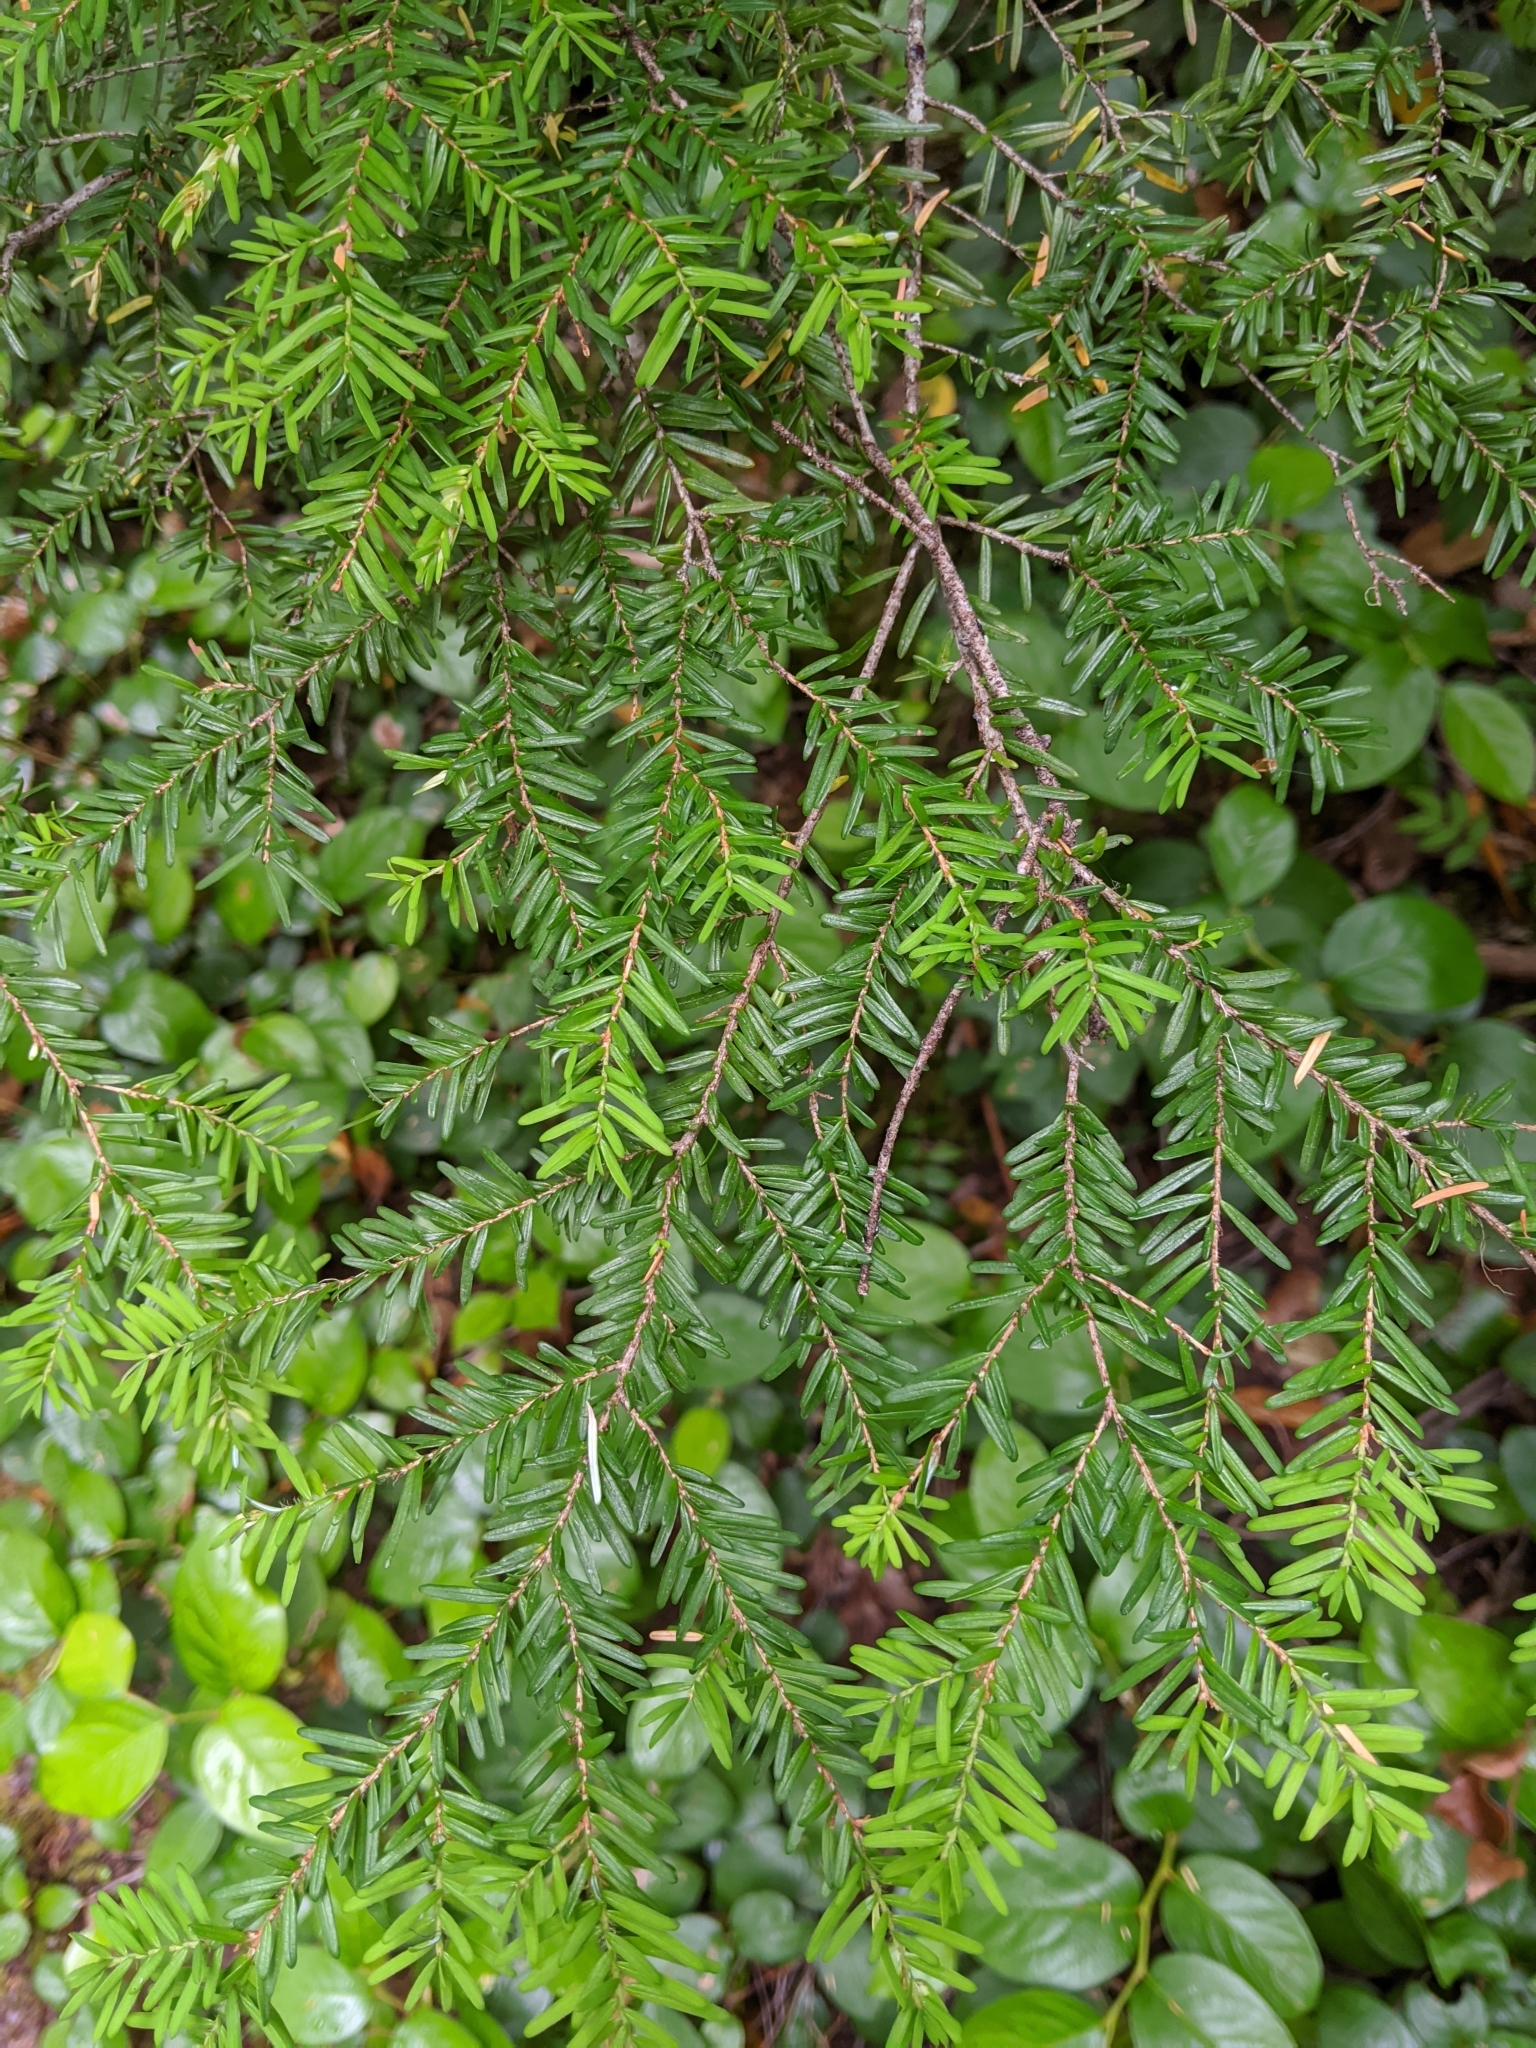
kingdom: Plantae
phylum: Tracheophyta
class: Pinopsida
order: Pinales
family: Pinaceae
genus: Tsuga
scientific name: Tsuga heterophylla
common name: Western hemlock
